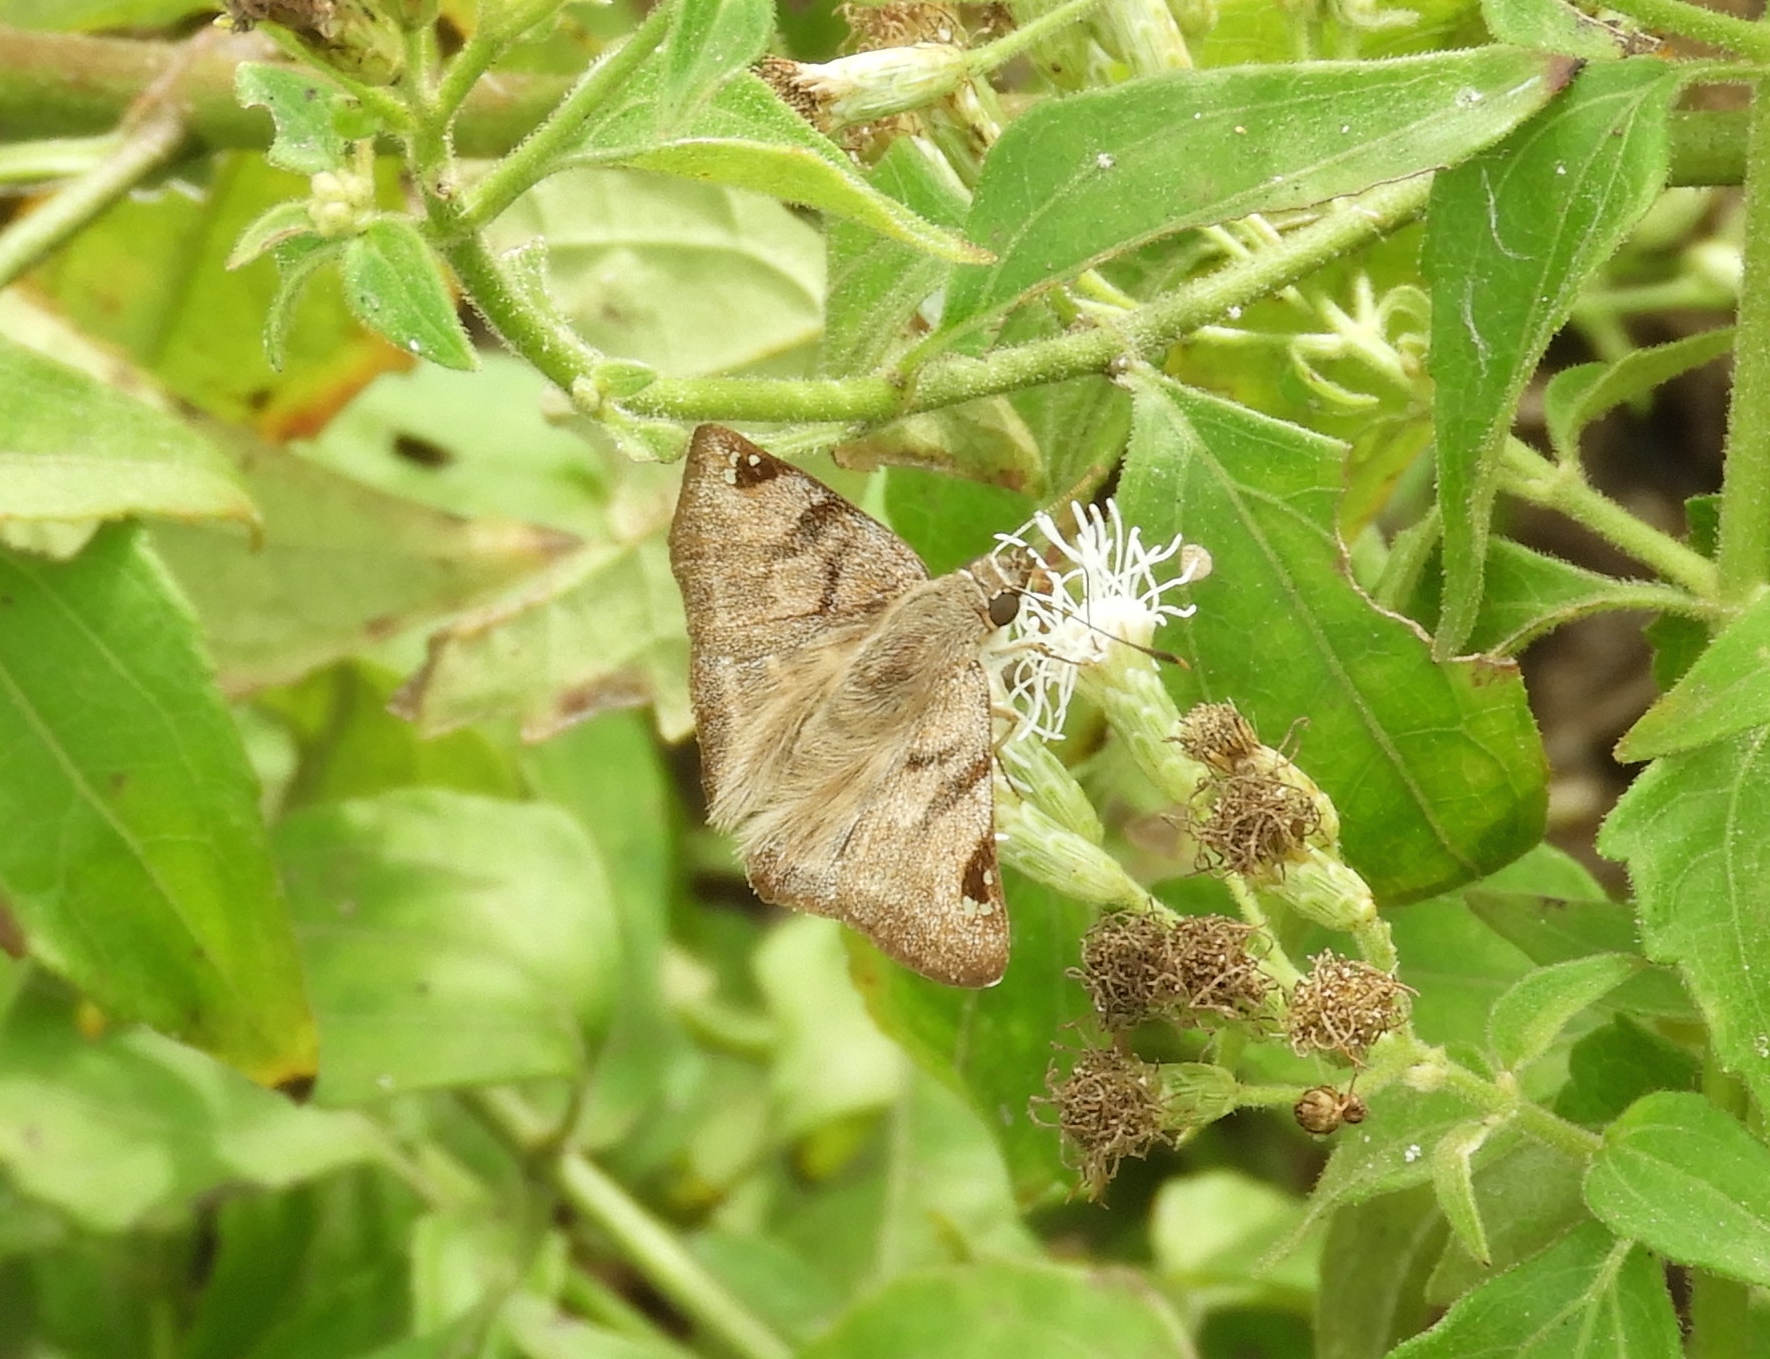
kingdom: Animalia
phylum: Arthropoda
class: Insecta
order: Lepidoptera
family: Hesperiidae
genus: Arteurotia
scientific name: Arteurotia tractipennis
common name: Starred skipper
